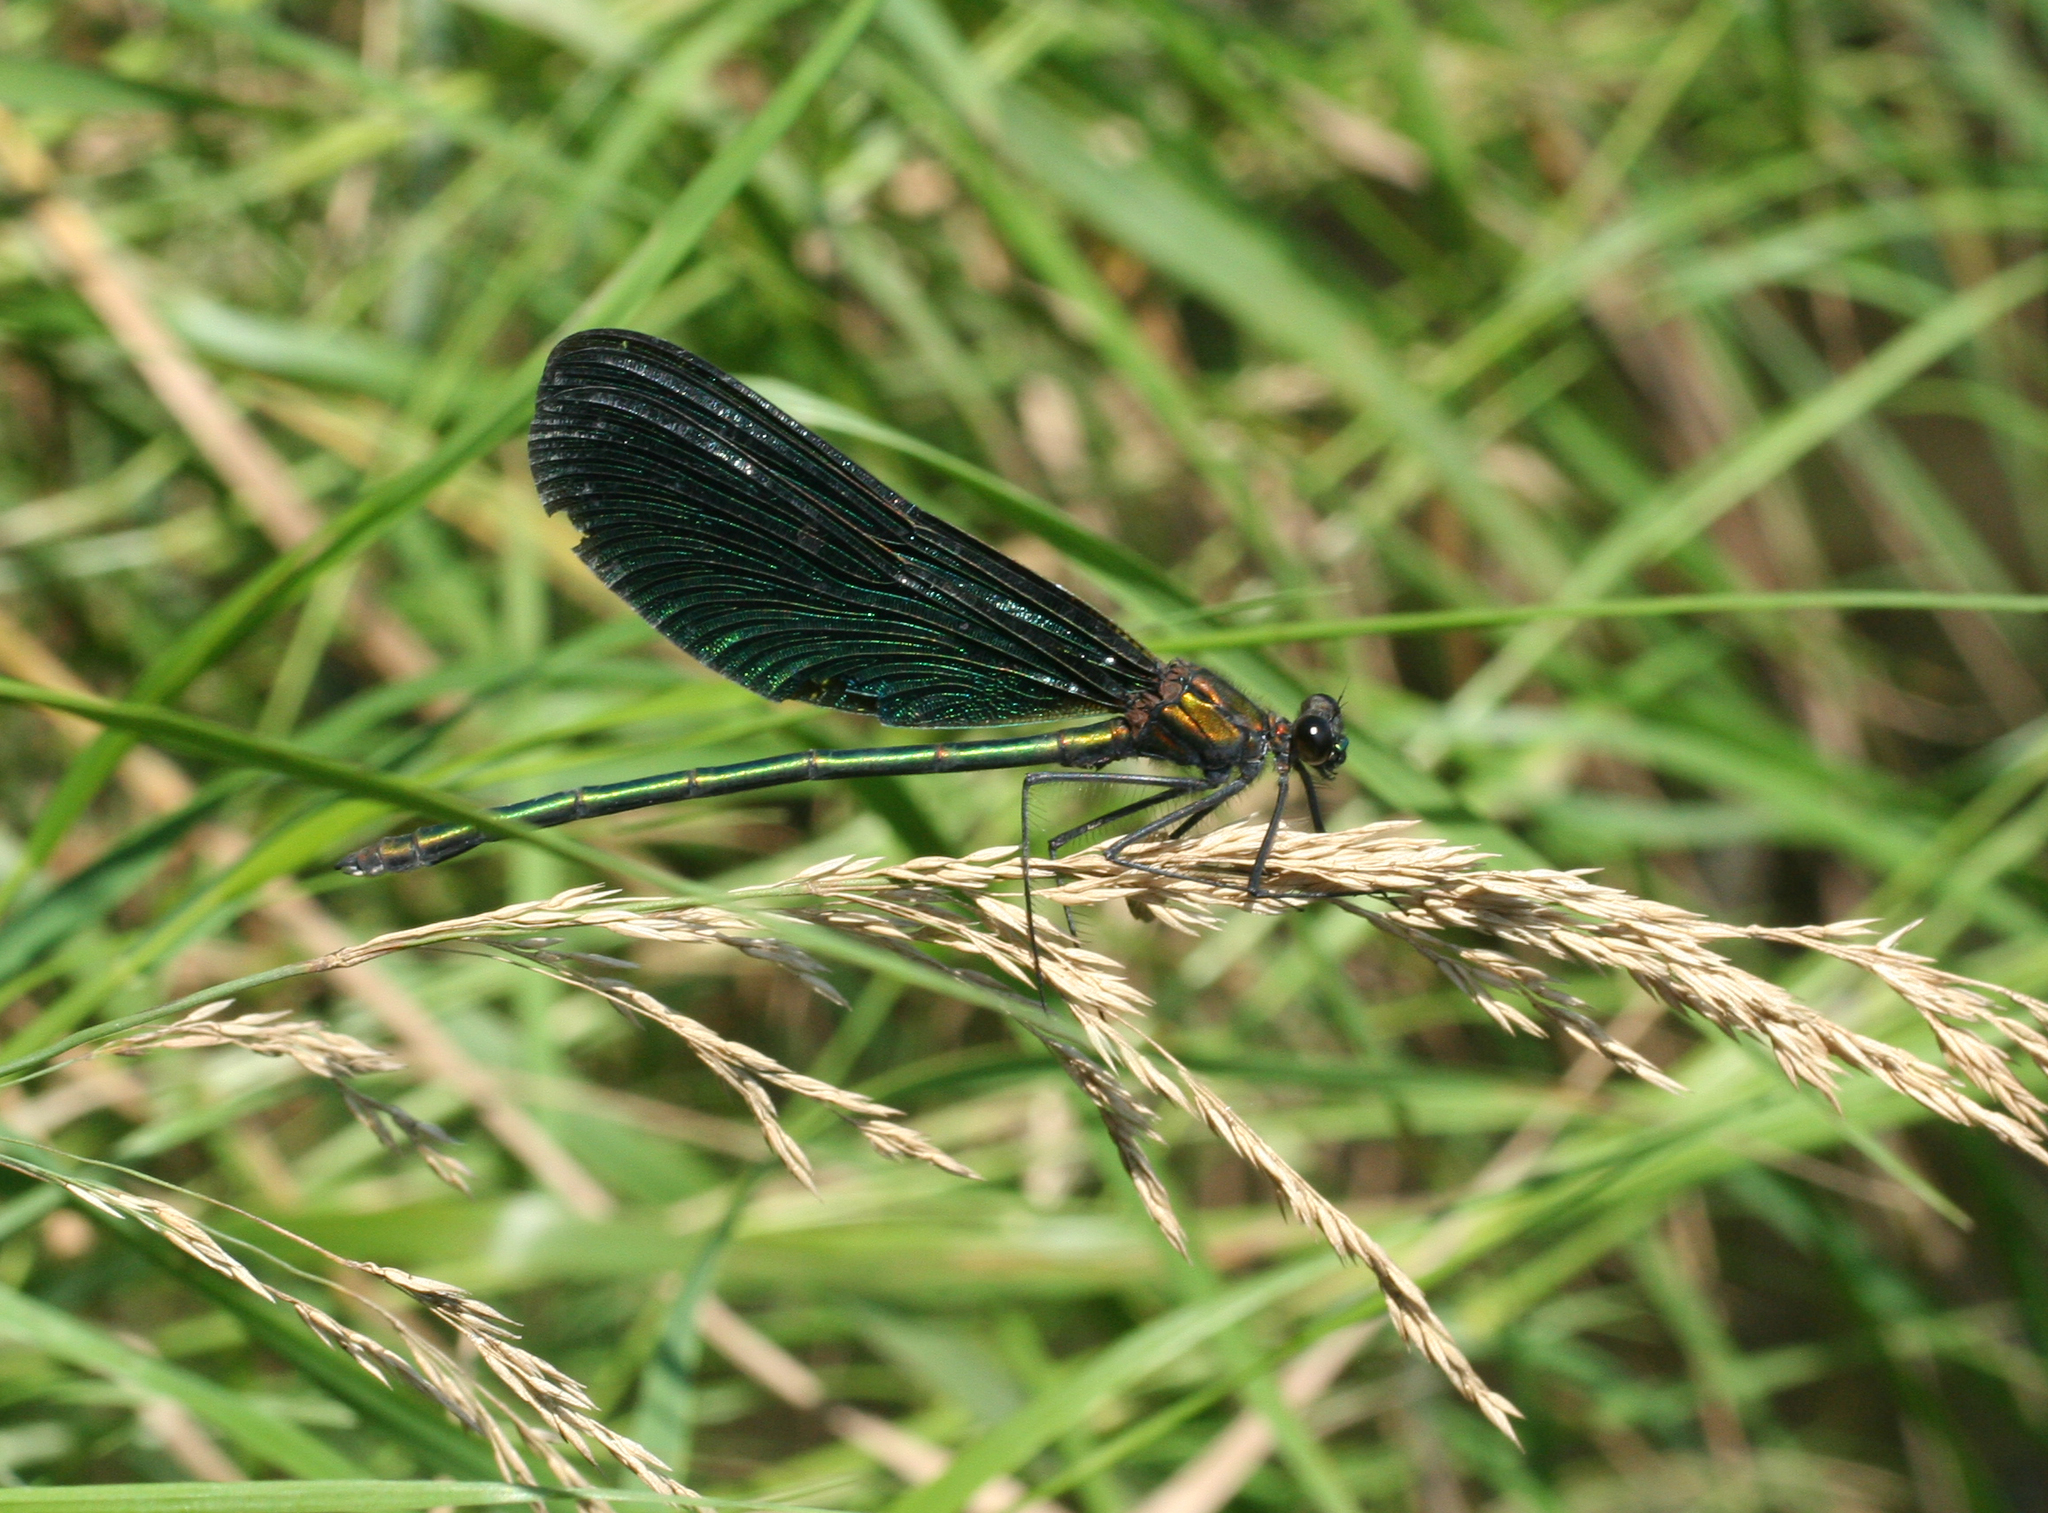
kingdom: Animalia
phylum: Arthropoda
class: Insecta
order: Odonata
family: Calopterygidae
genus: Atrocalopteryx
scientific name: Atrocalopteryx atrata
